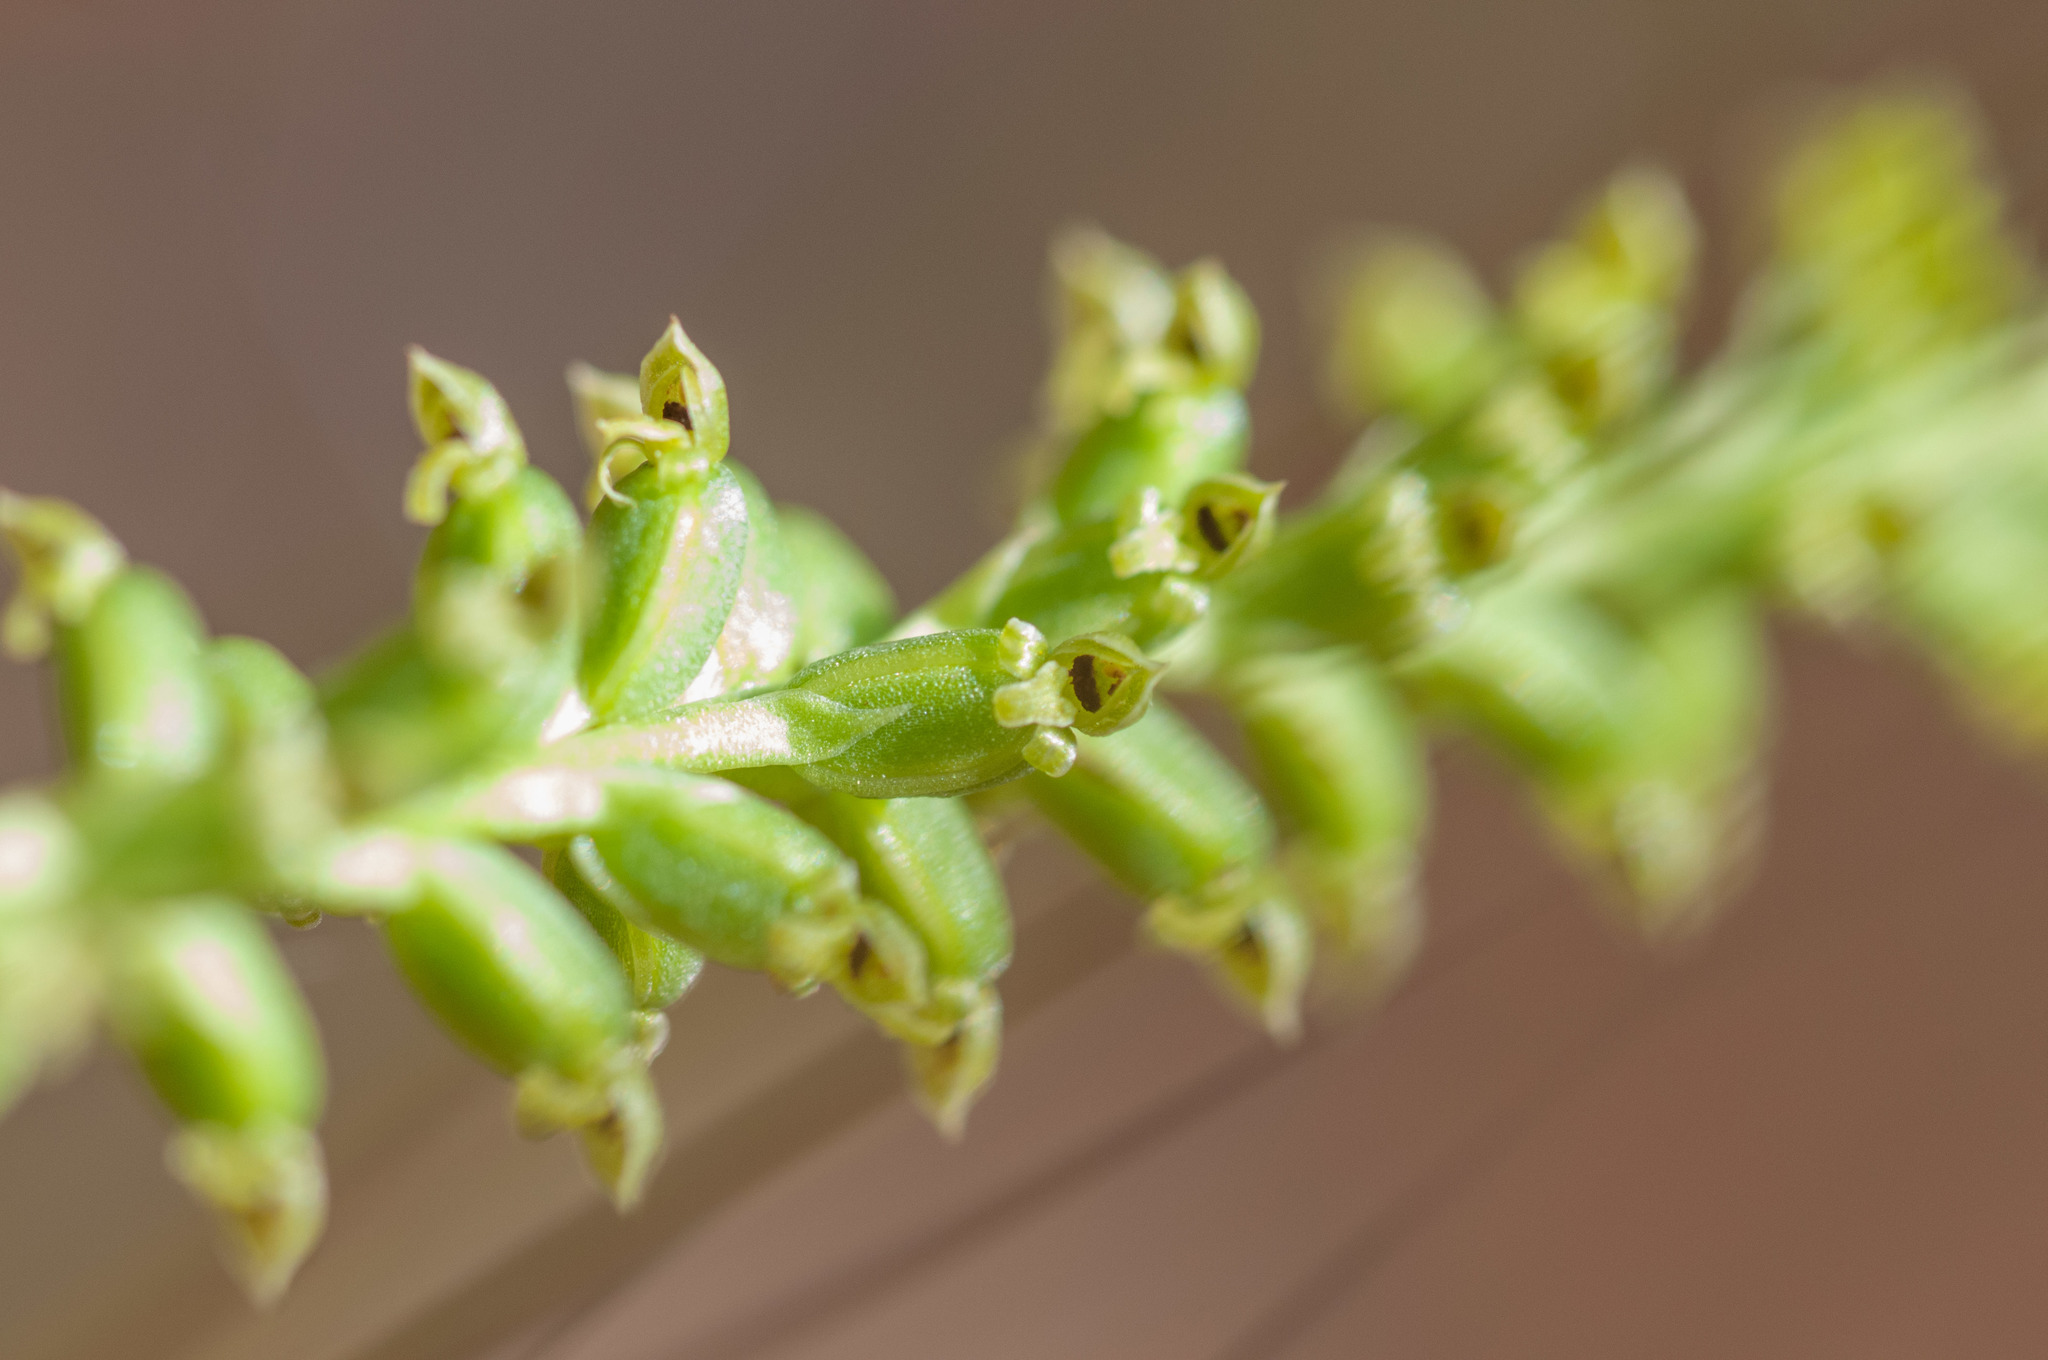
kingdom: Plantae
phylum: Tracheophyta
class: Liliopsida
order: Asparagales
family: Orchidaceae
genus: Microtis
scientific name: Microtis parviflora
